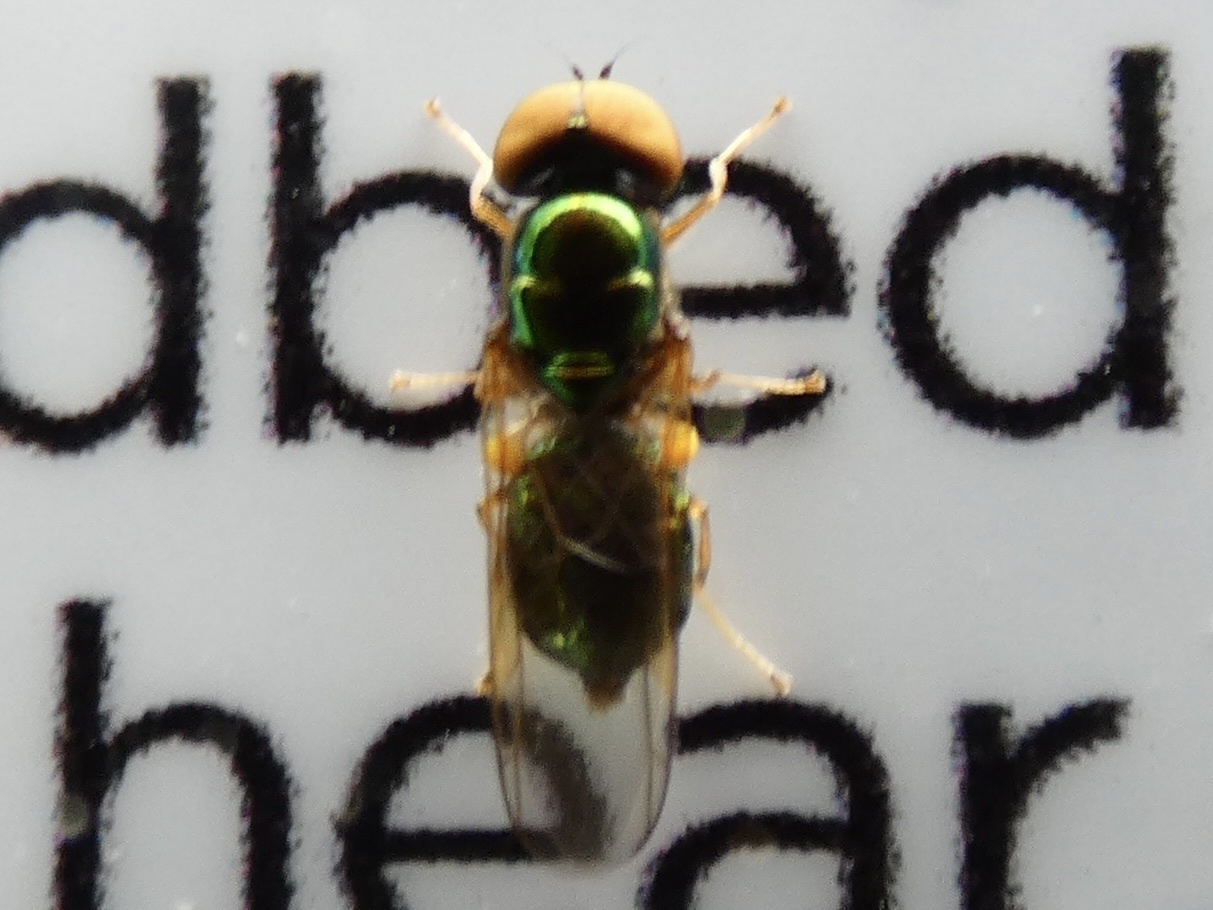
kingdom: Animalia
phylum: Arthropoda
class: Insecta
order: Diptera
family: Stratiomyidae
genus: Microchrysa
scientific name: Microchrysa flavicornis
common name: Soldier fly
